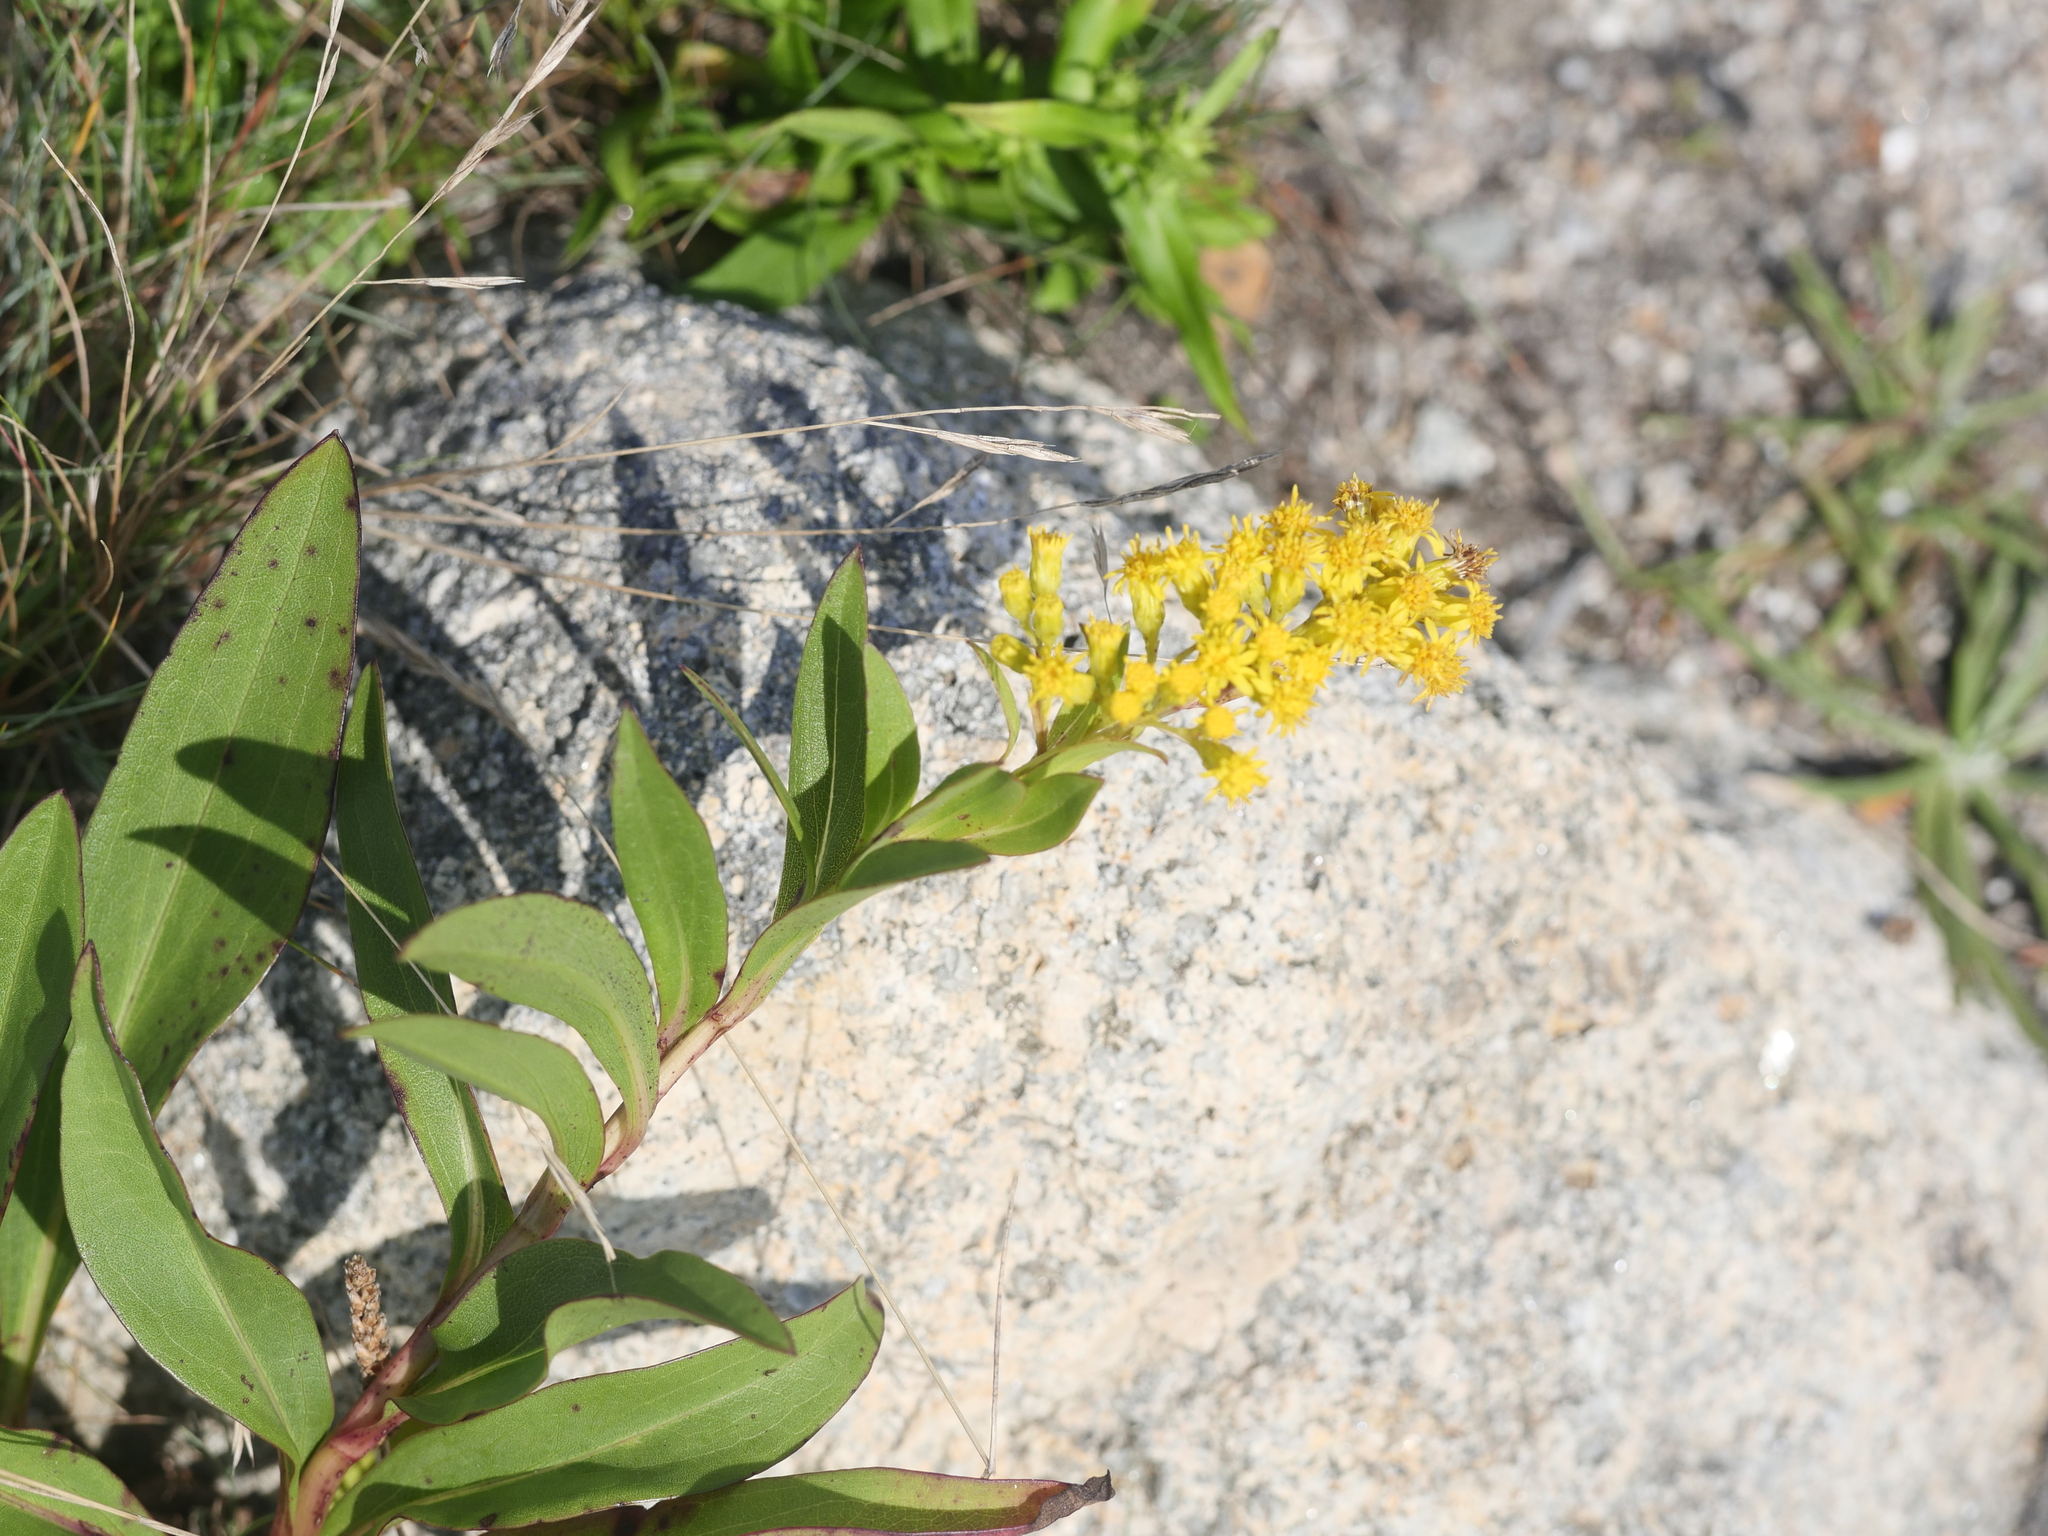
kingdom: Plantae
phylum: Tracheophyta
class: Magnoliopsida
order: Asterales
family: Asteraceae
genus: Solidago
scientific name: Solidago sempervirens
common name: Salt-marsh goldenrod
